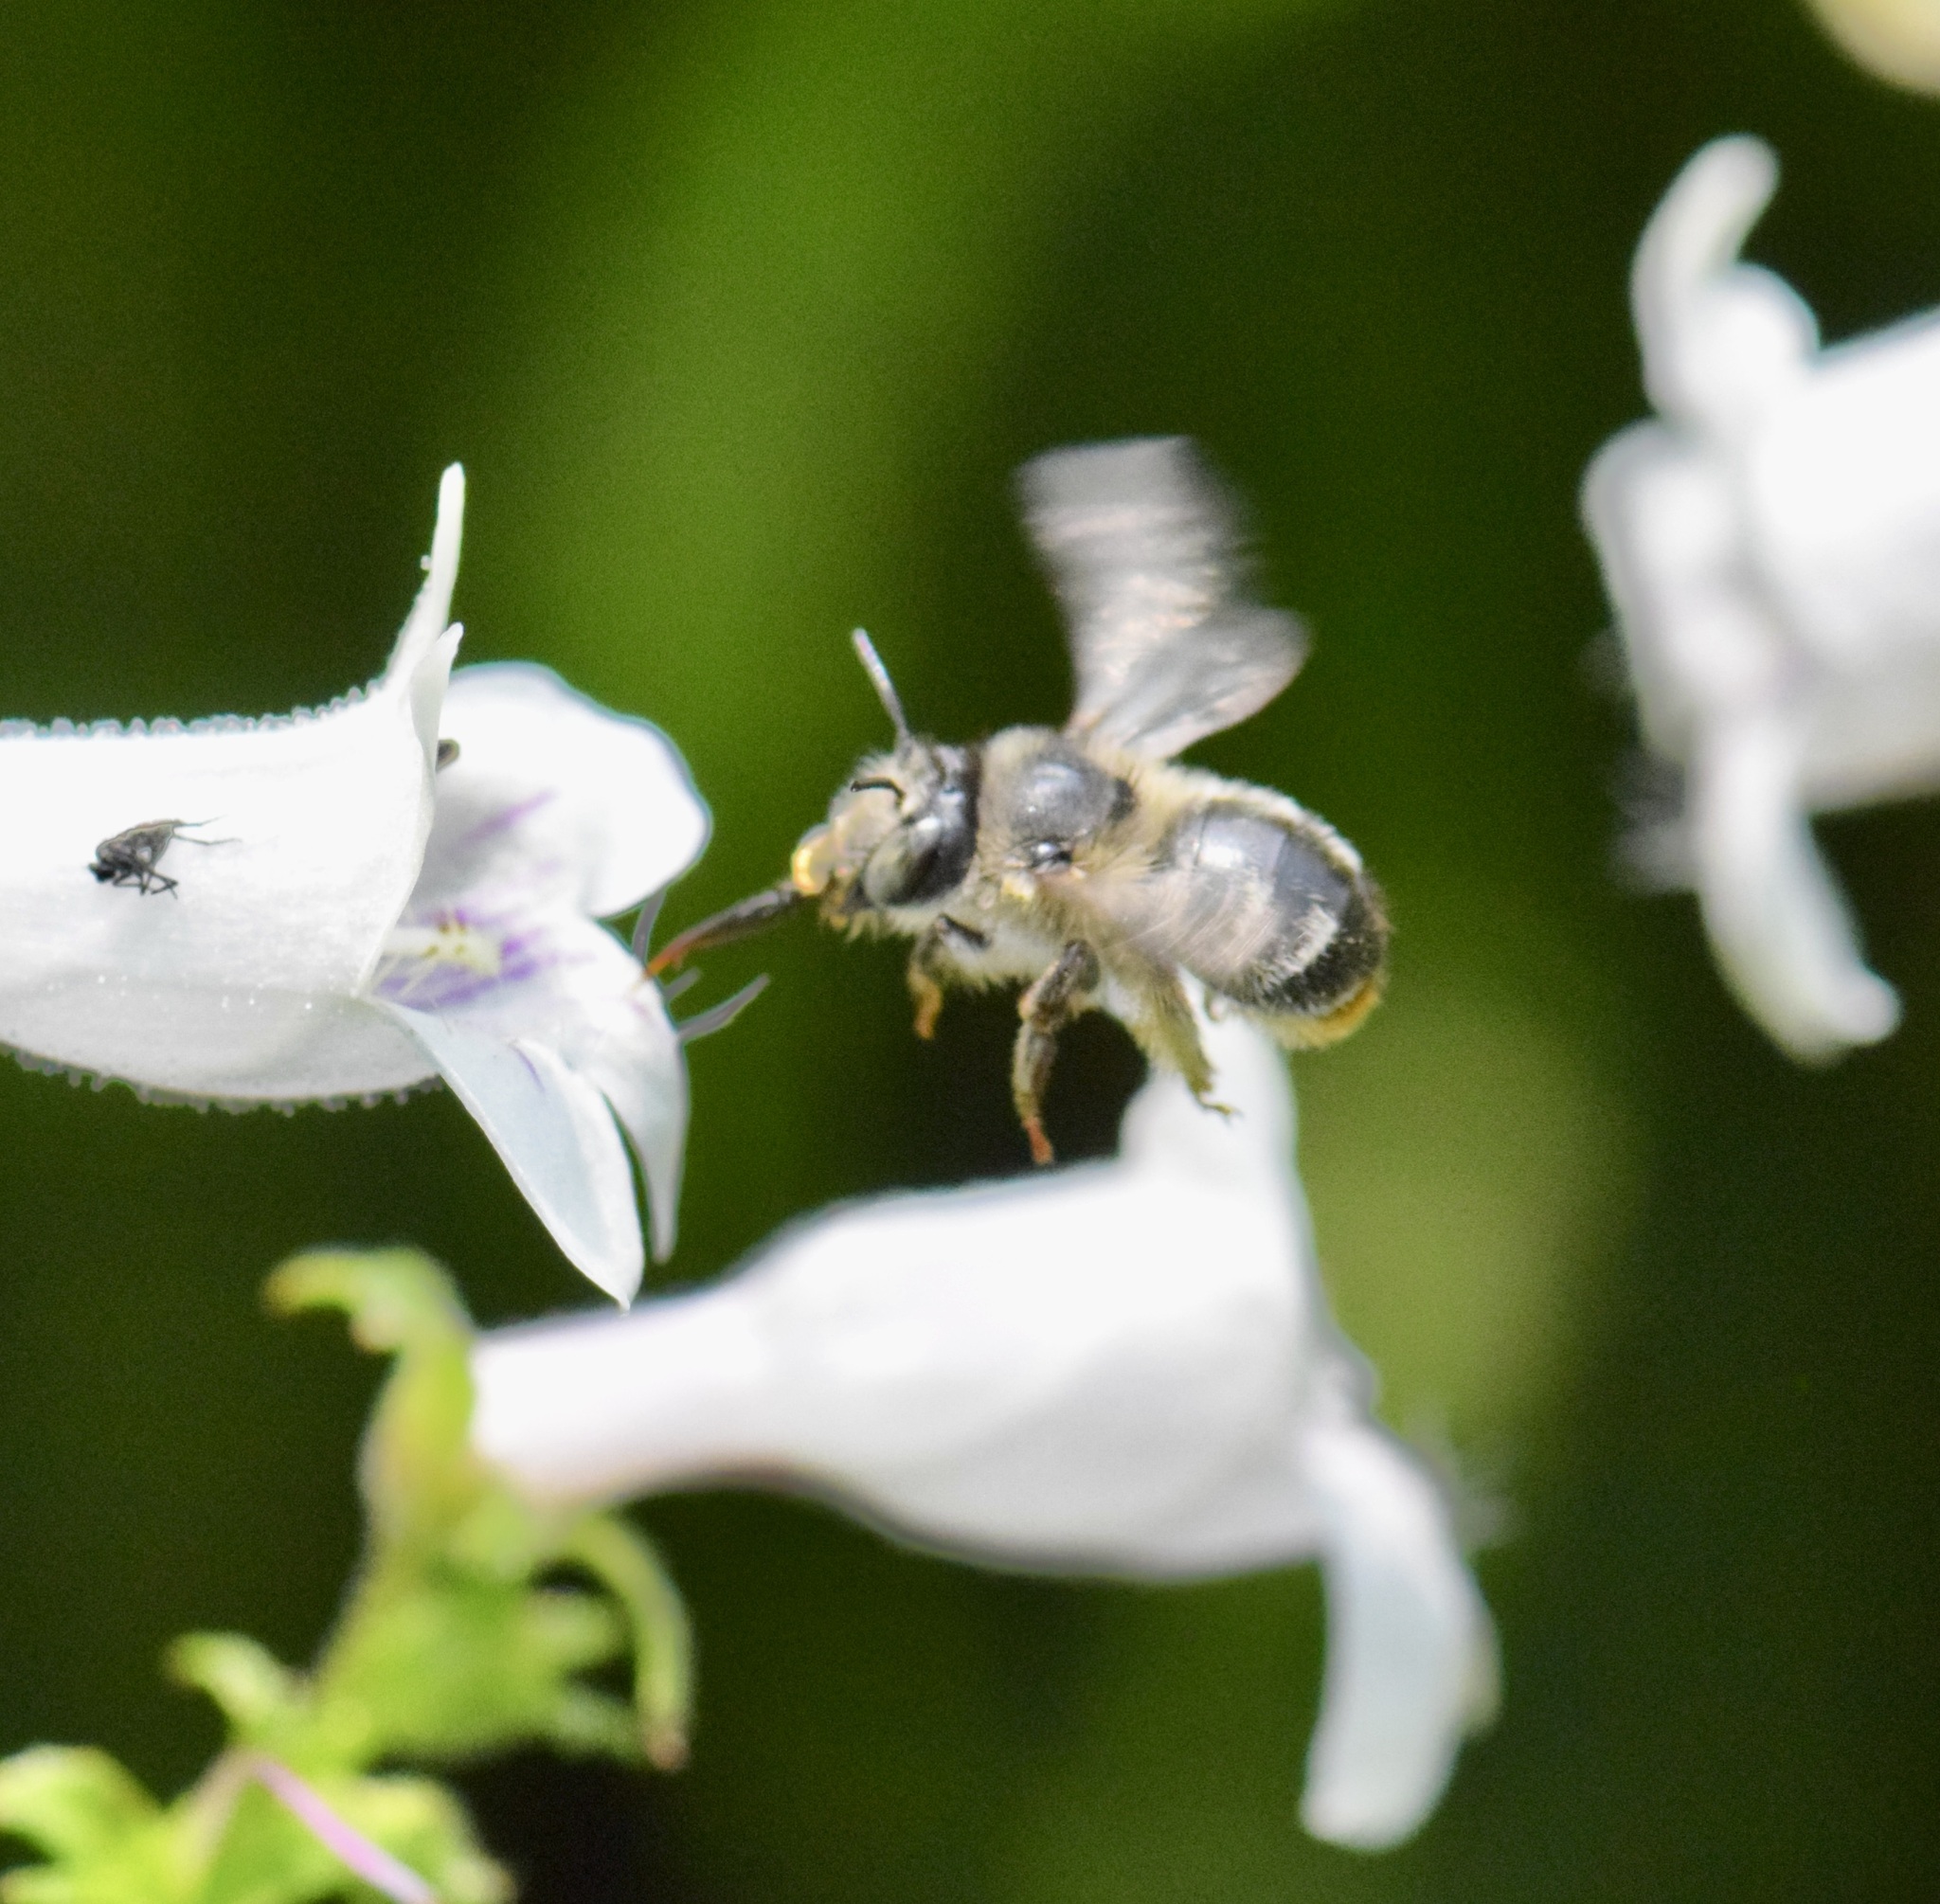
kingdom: Animalia
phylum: Arthropoda
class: Insecta
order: Hymenoptera
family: Apidae
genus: Anthophora
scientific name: Anthophora terminalis
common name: Orange-tipped wood-digger bee
